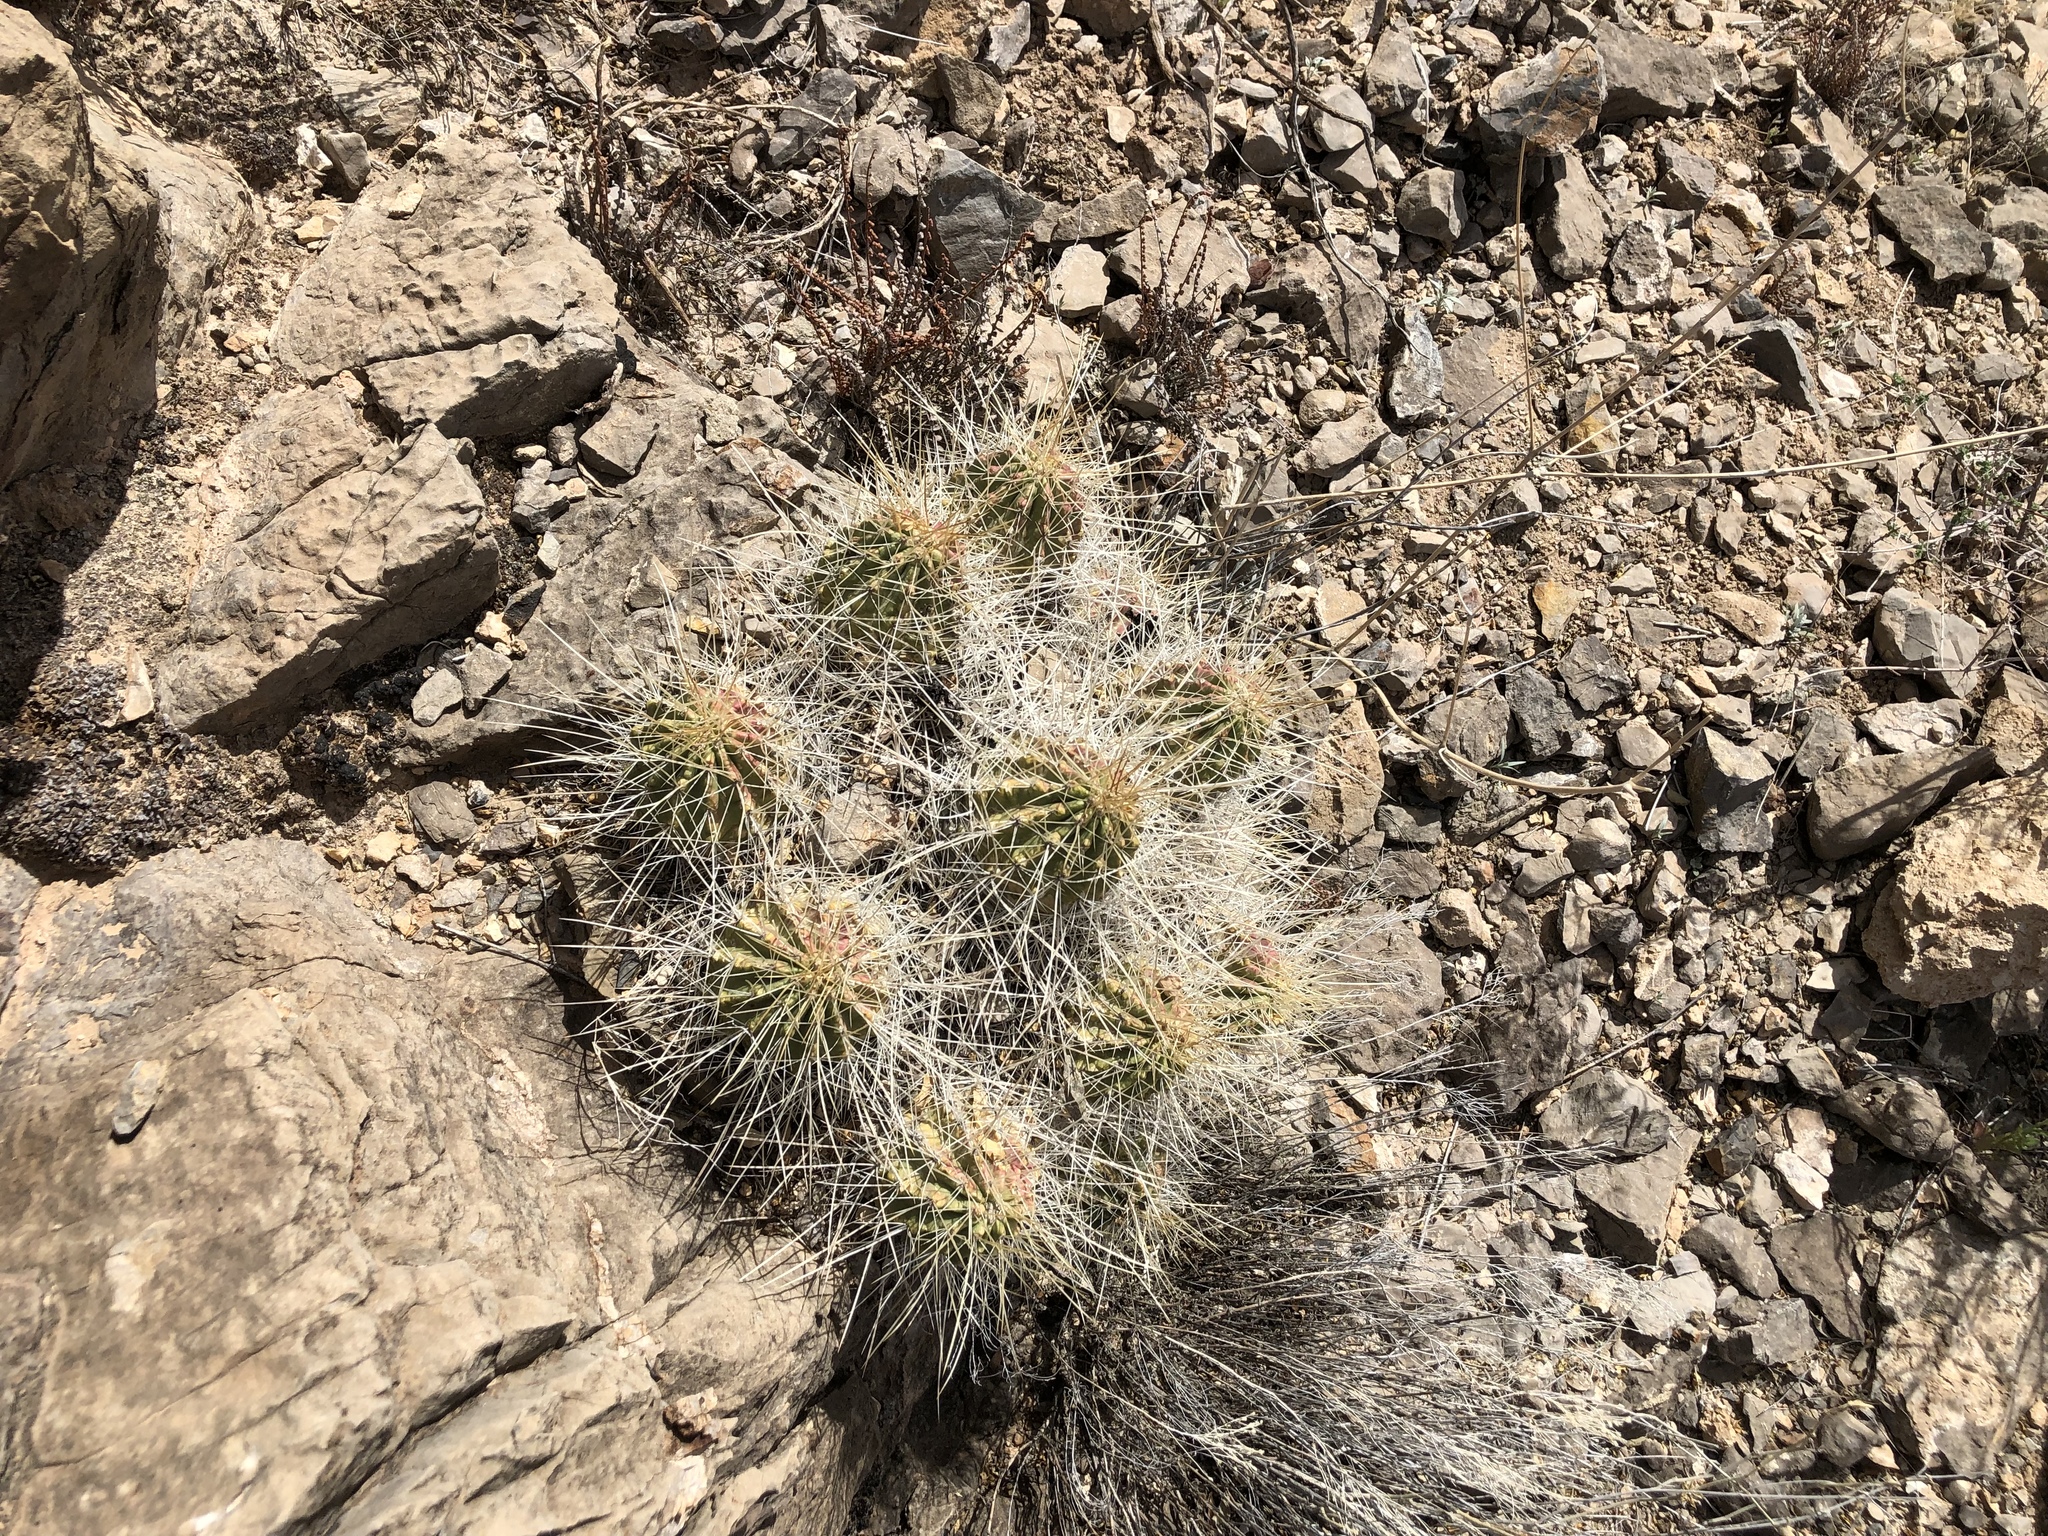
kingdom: Plantae
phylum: Tracheophyta
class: Magnoliopsida
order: Caryophyllales
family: Cactaceae
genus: Echinocereus
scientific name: Echinocereus stramineus
